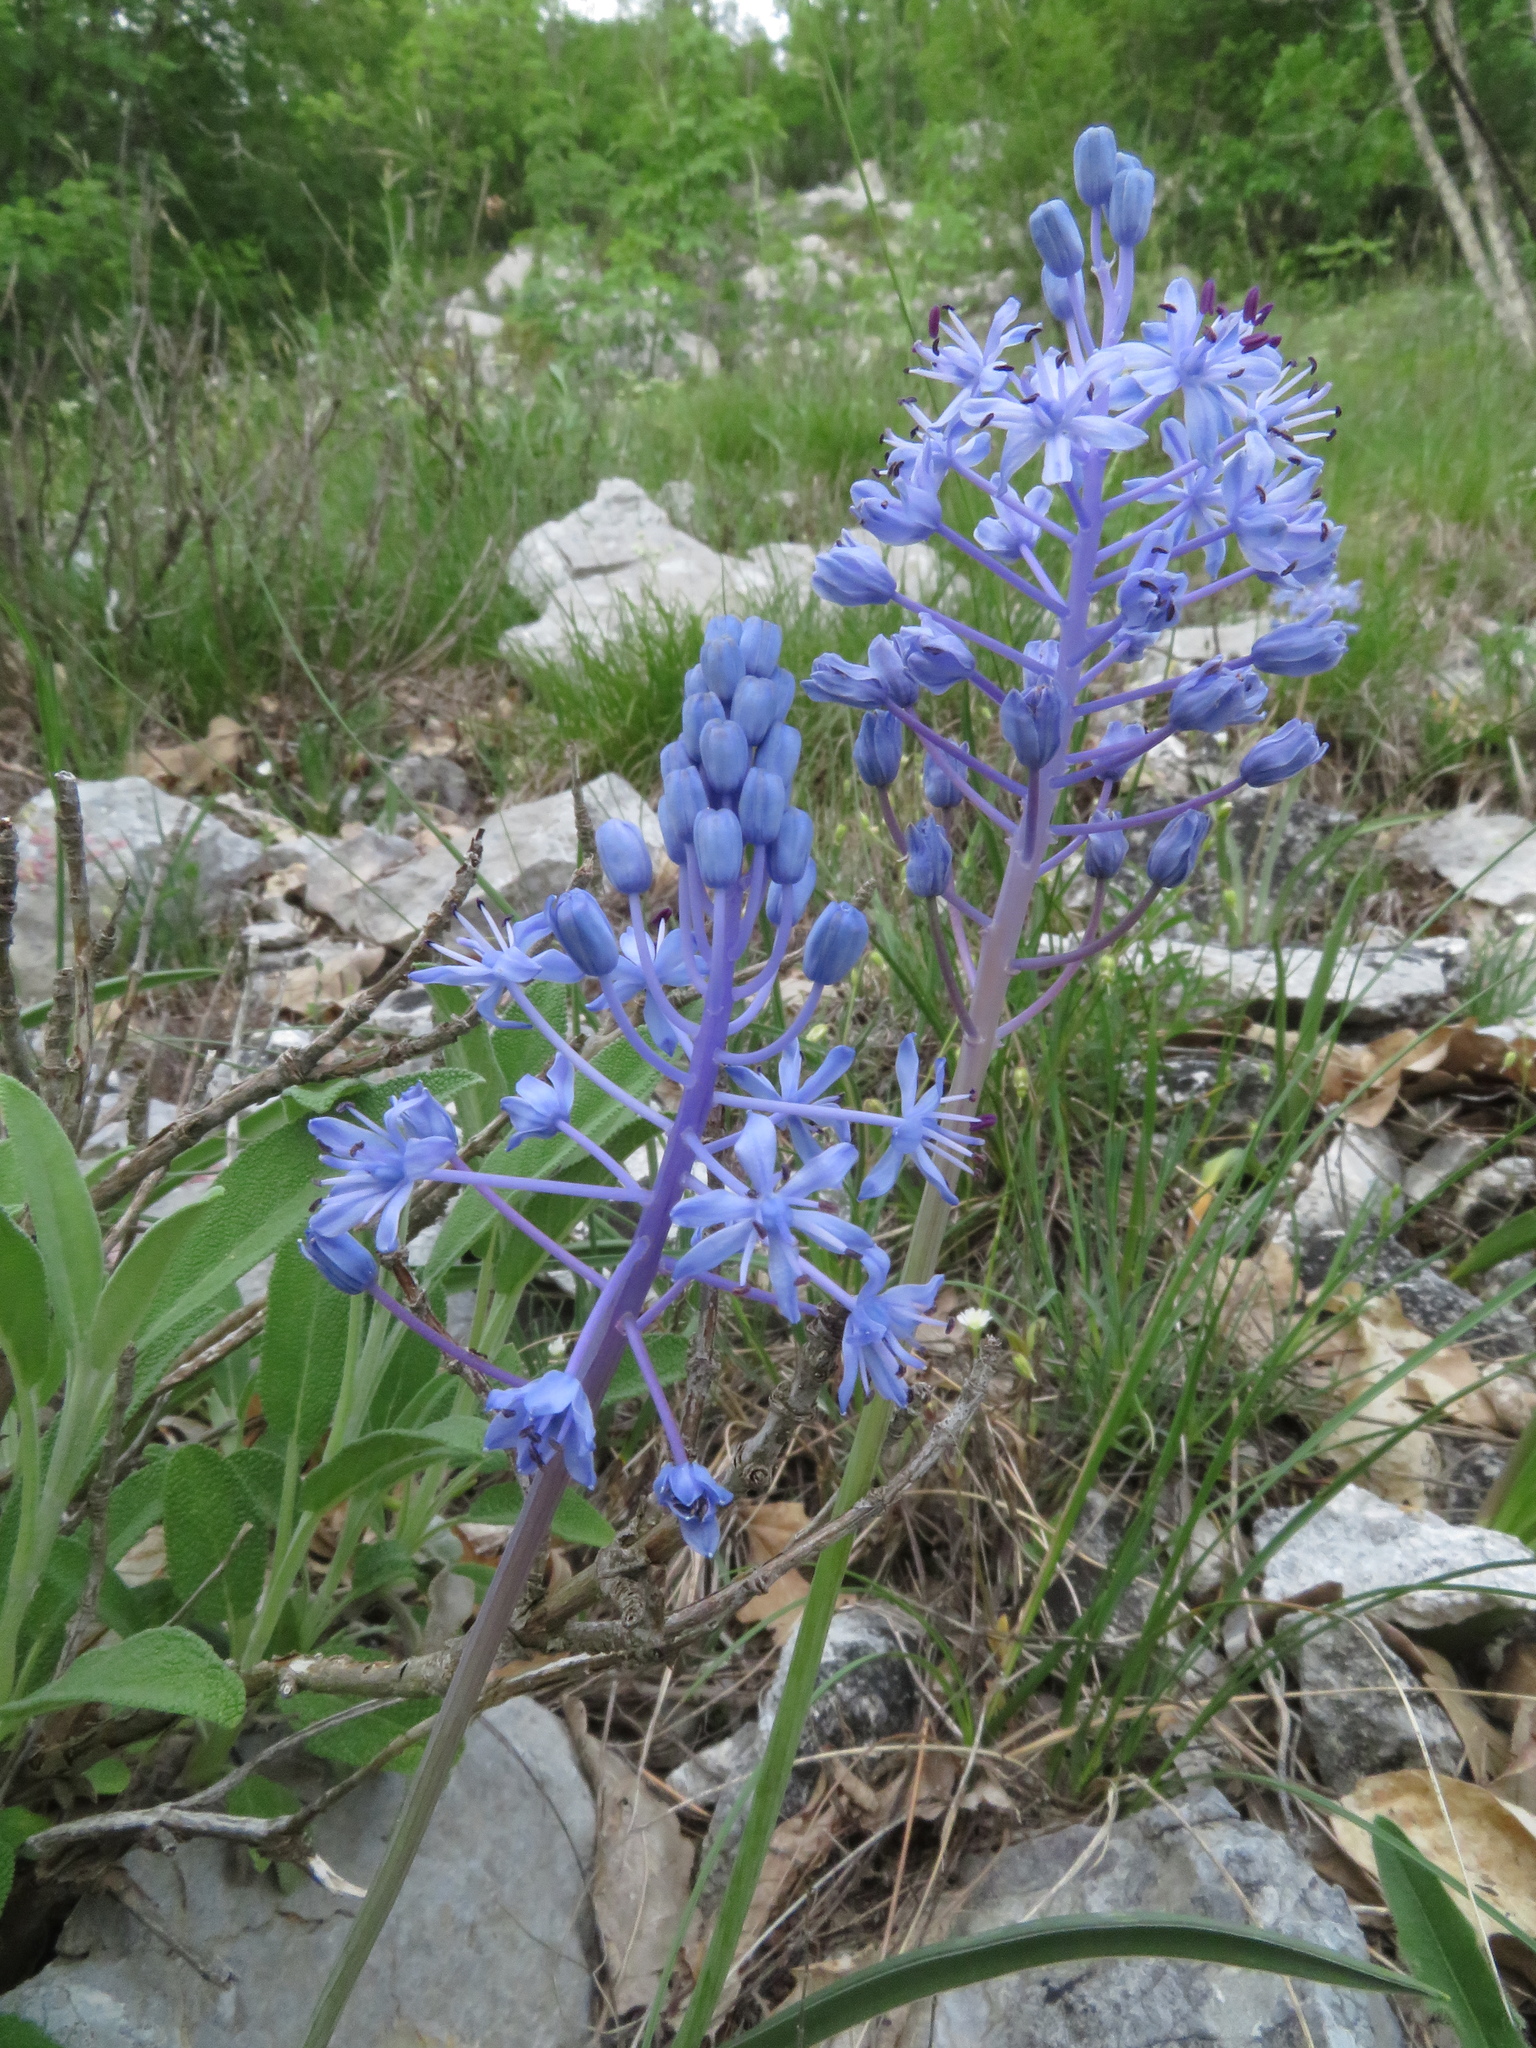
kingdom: Plantae
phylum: Tracheophyta
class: Liliopsida
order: Asparagales
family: Asparagaceae
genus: Scilla
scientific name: Scilla lakusicii
